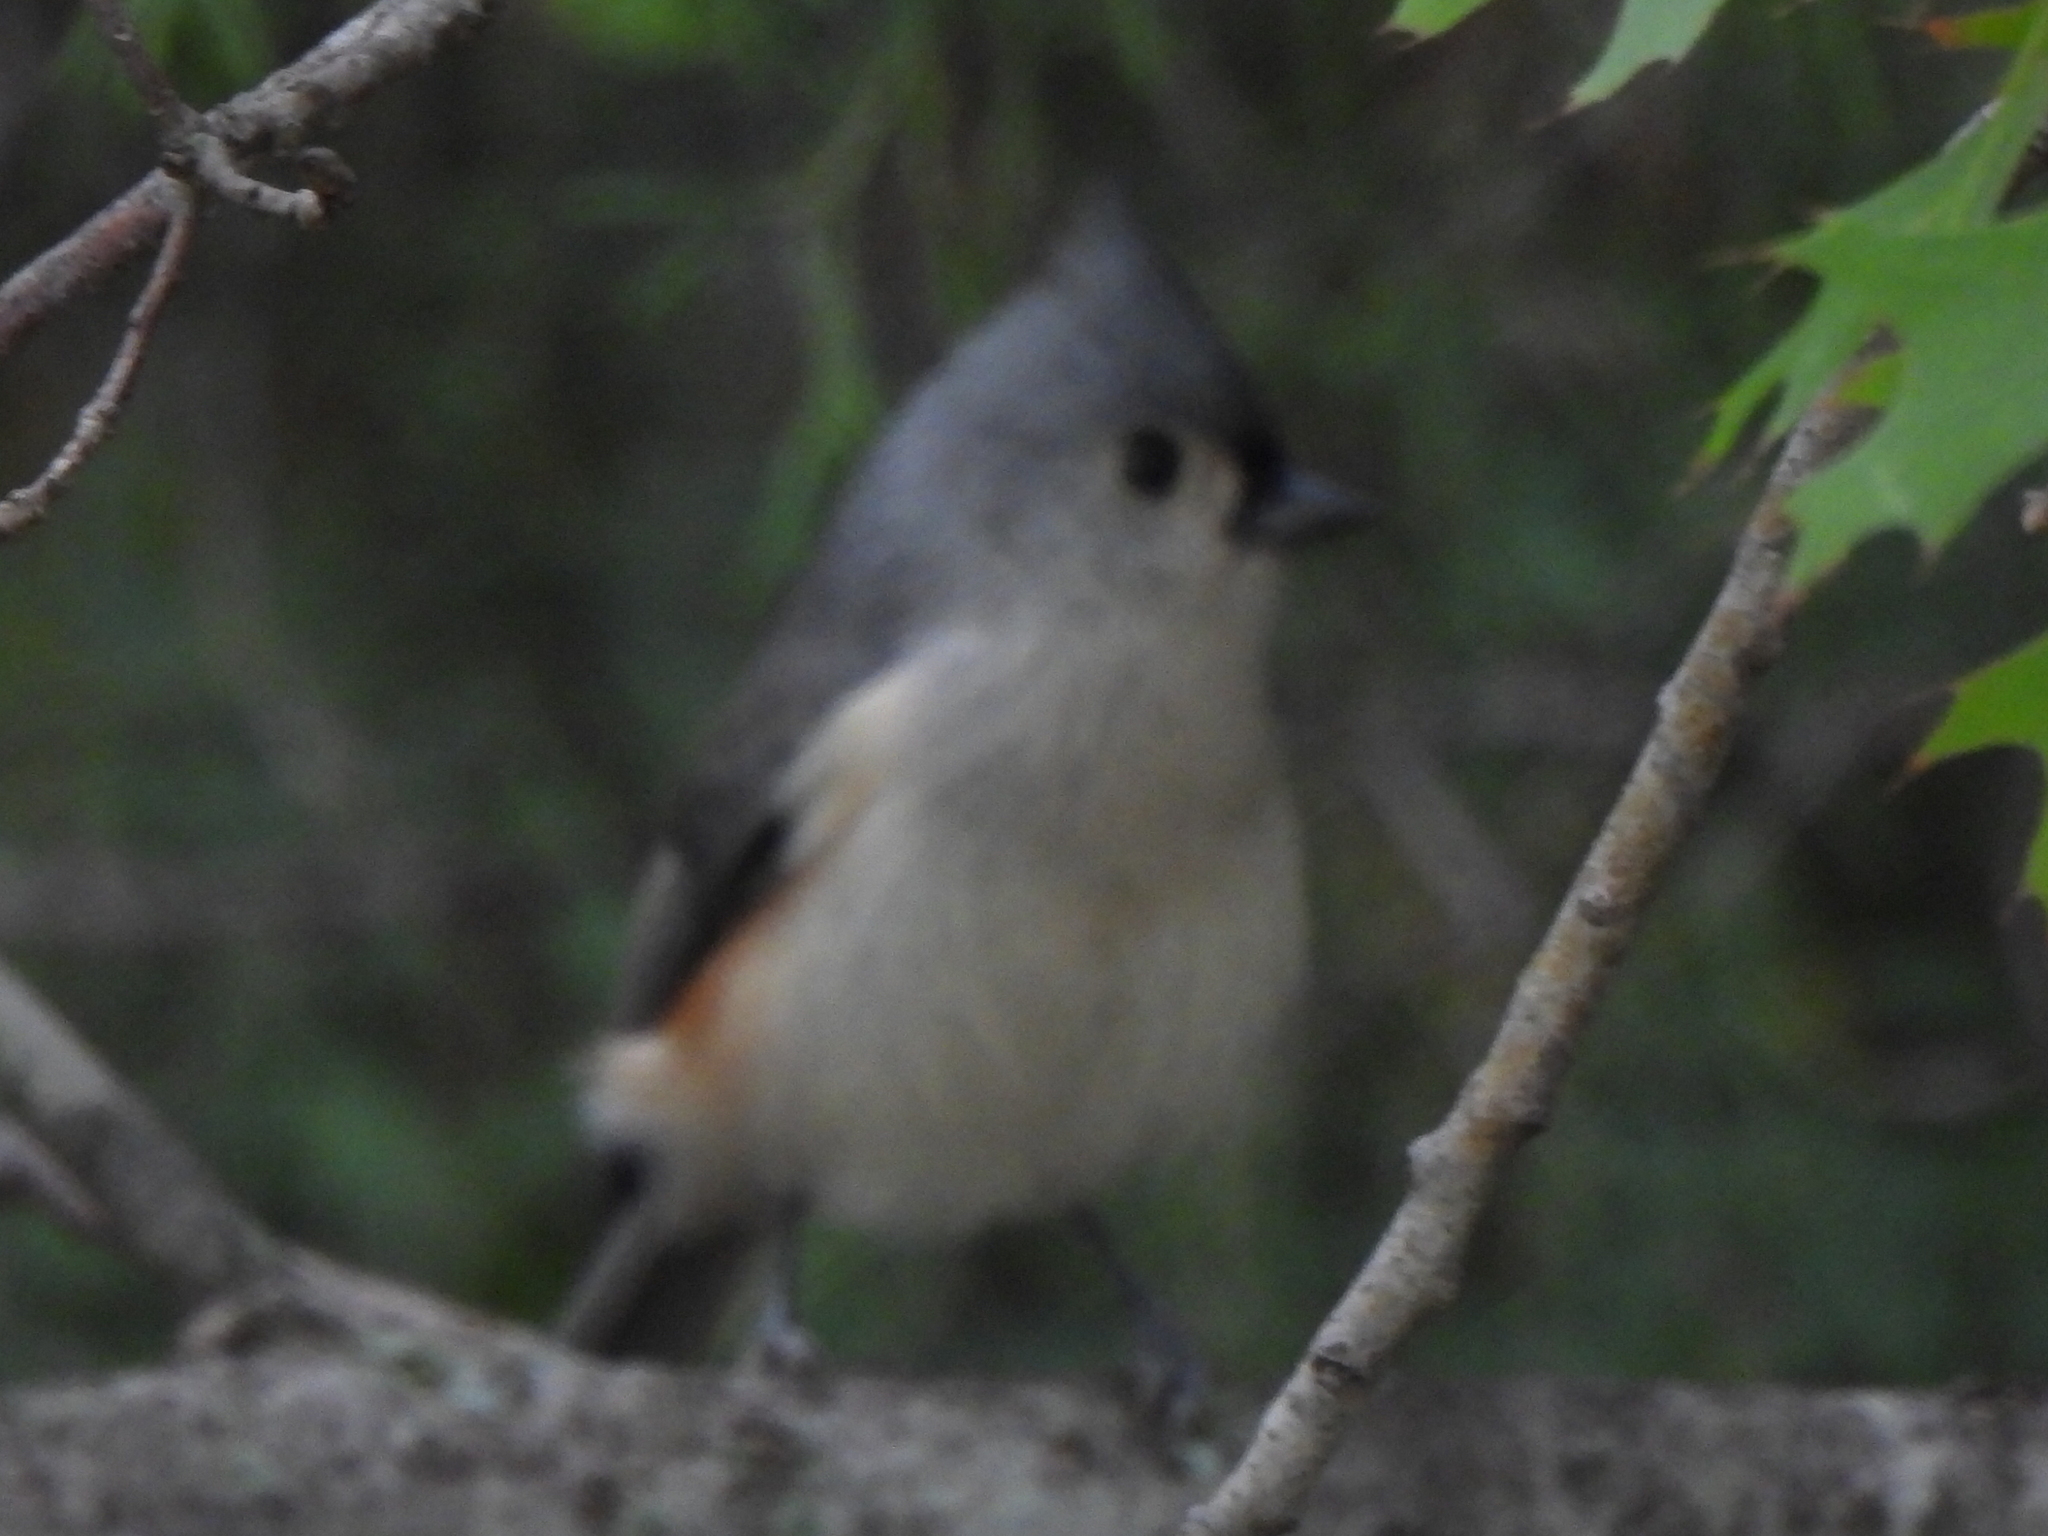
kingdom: Animalia
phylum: Chordata
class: Aves
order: Passeriformes
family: Paridae
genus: Baeolophus
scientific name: Baeolophus bicolor
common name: Tufted titmouse
